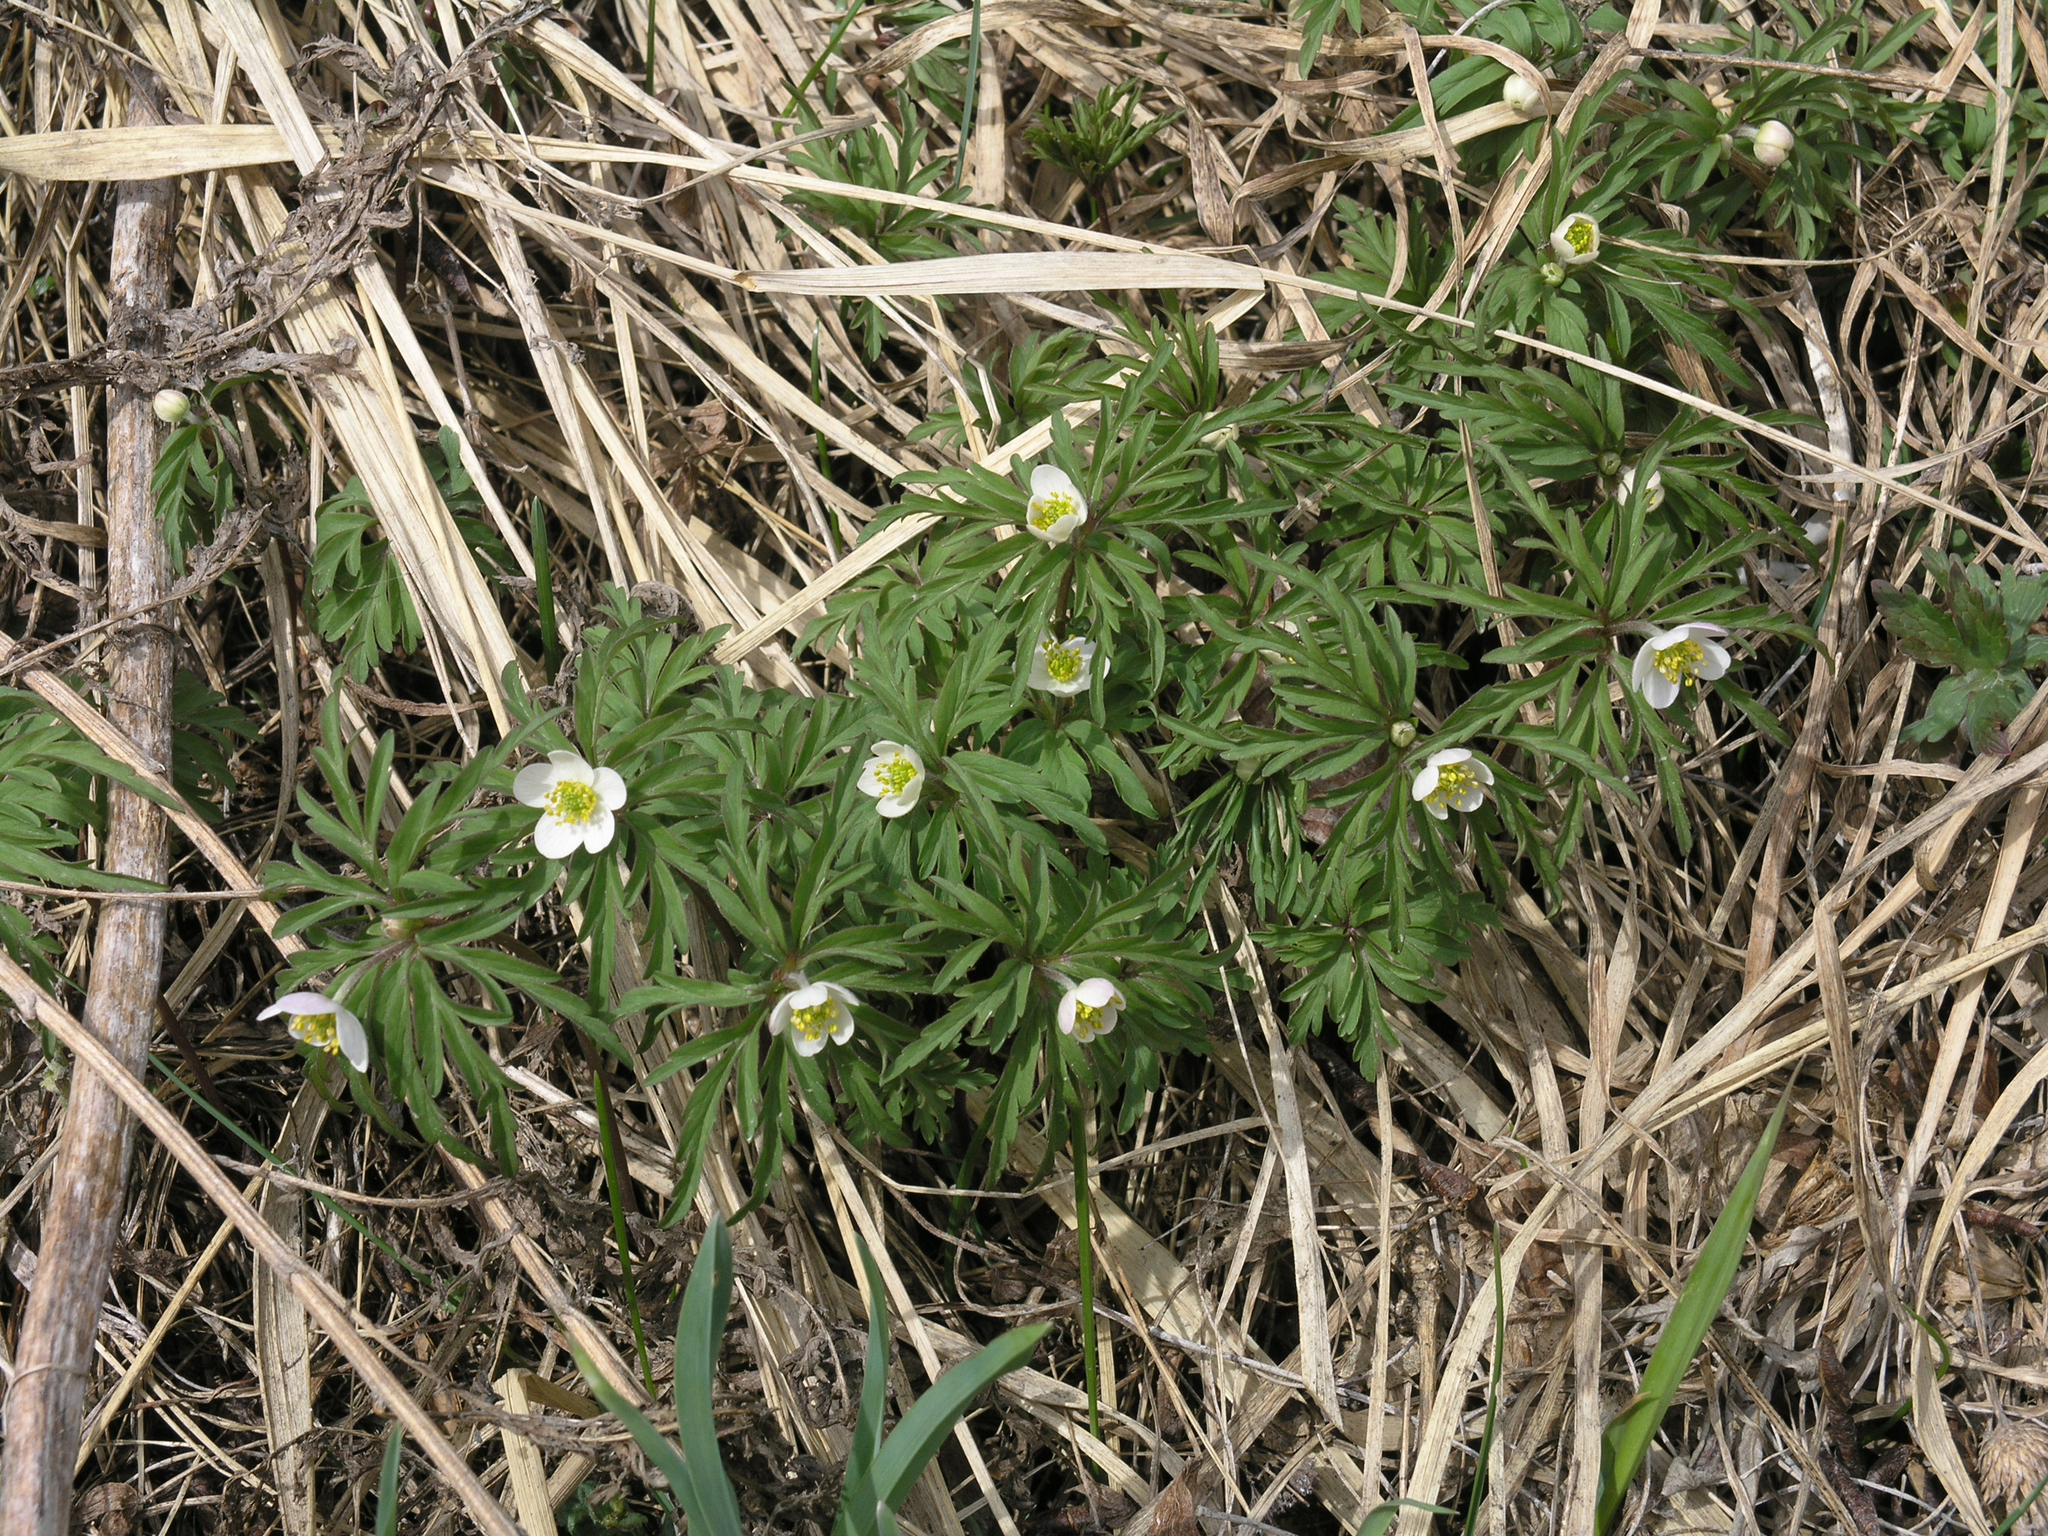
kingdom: Plantae
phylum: Tracheophyta
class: Magnoliopsida
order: Ranunculales
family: Ranunculaceae
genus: Anemone
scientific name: Anemone caerulea
